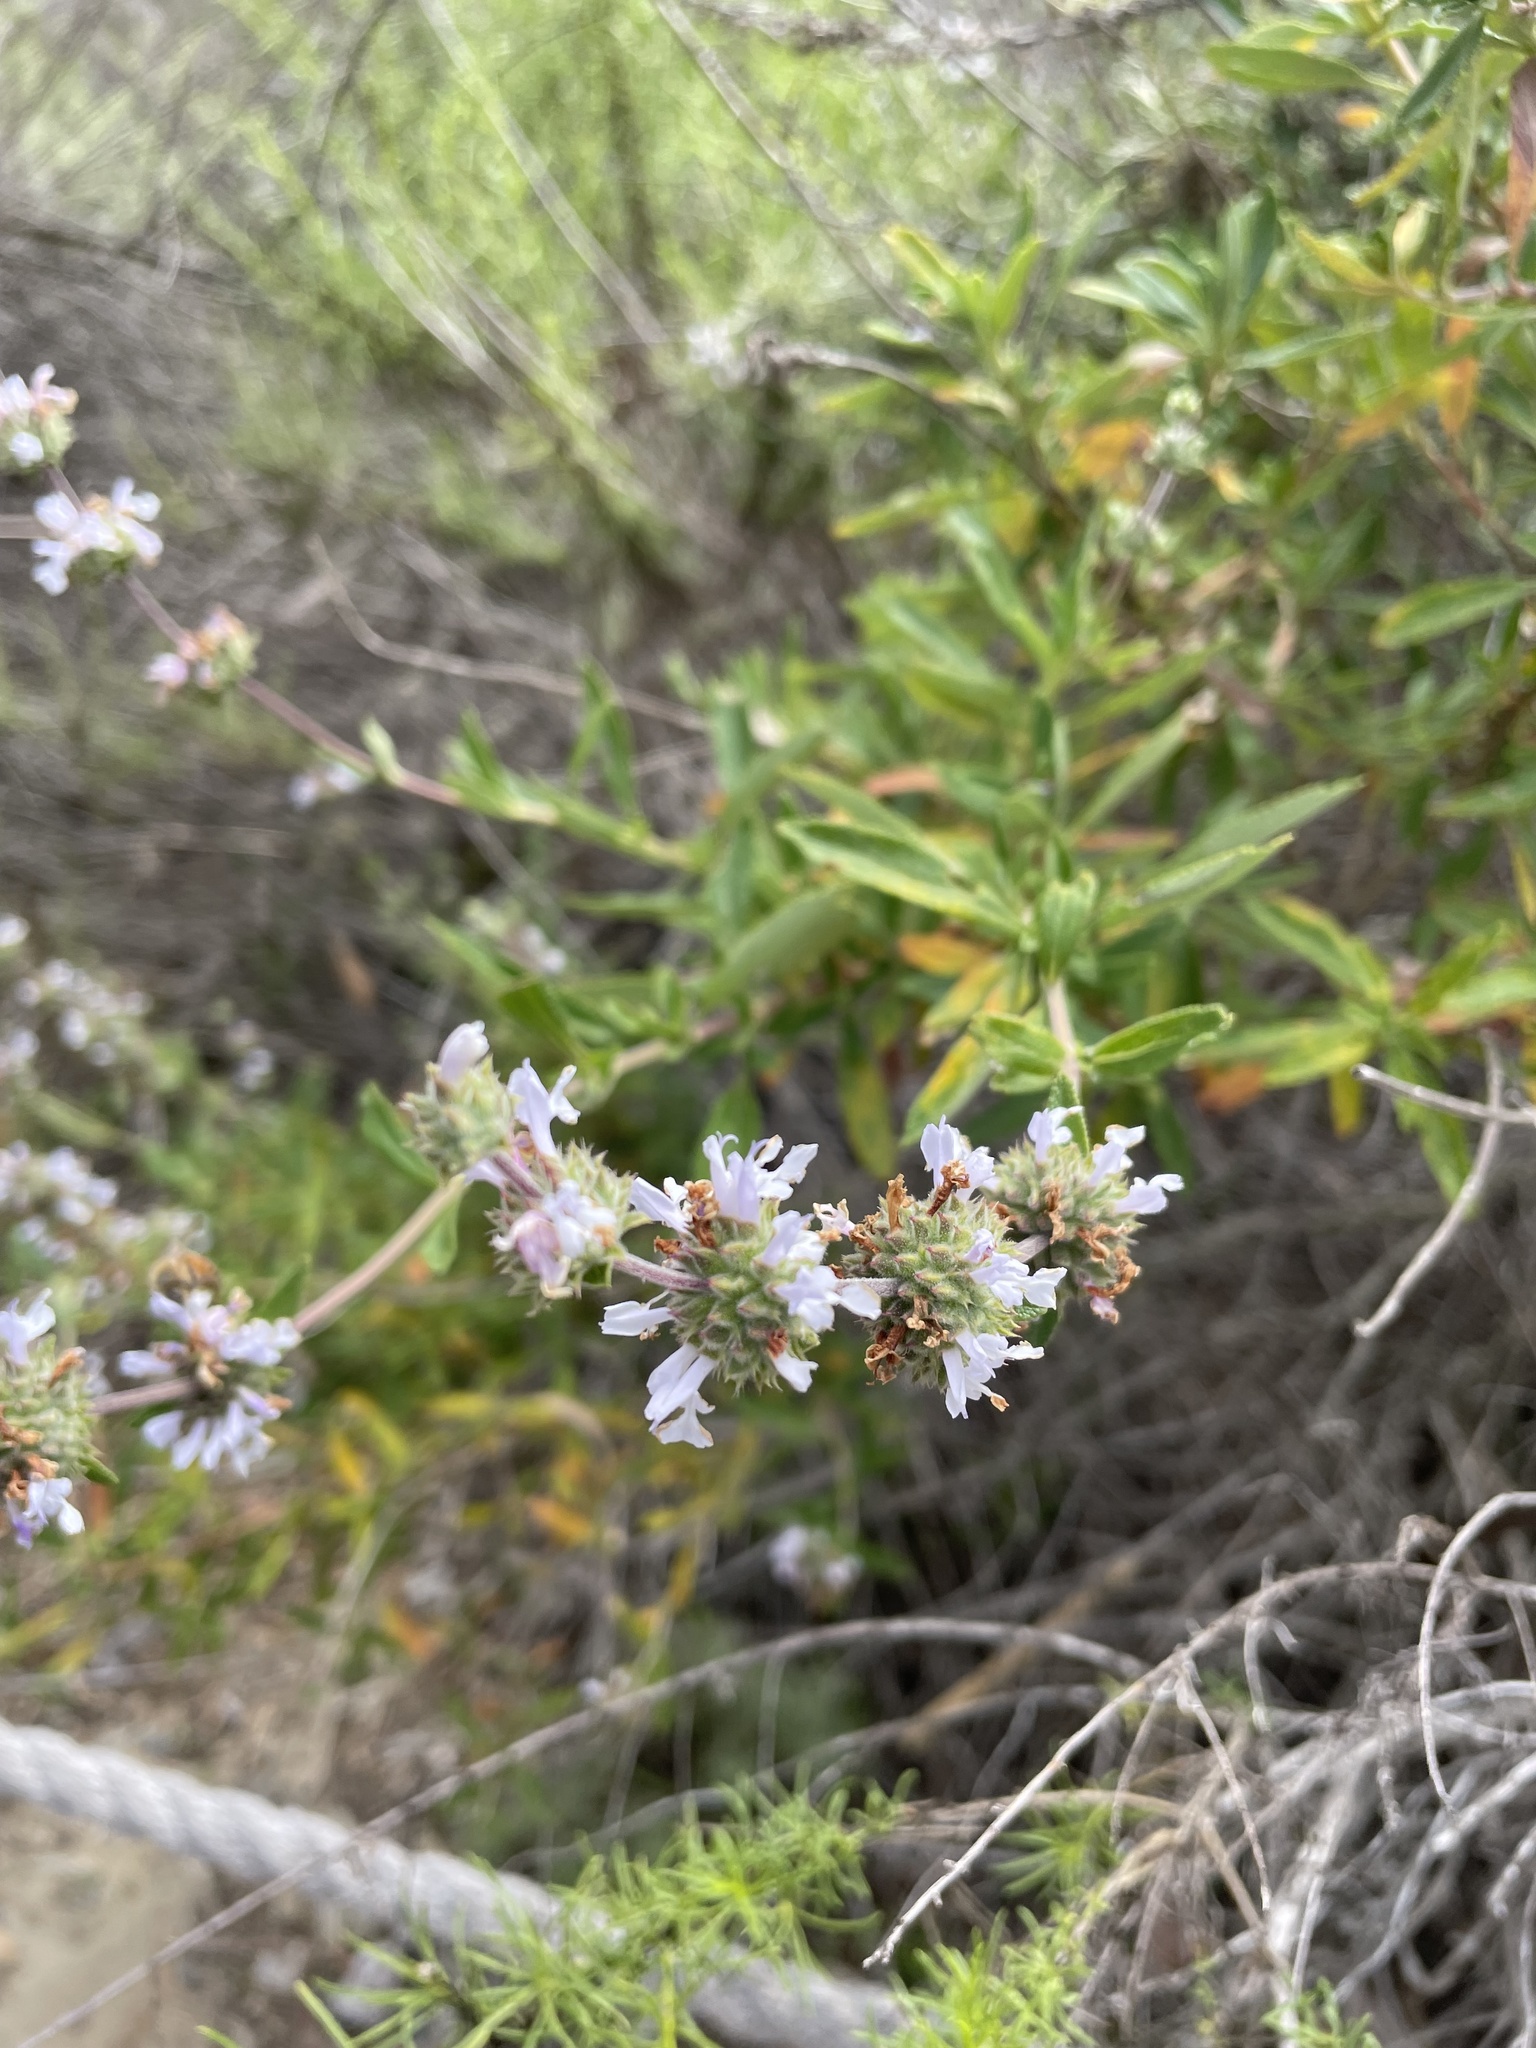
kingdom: Plantae
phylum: Tracheophyta
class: Magnoliopsida
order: Lamiales
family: Lamiaceae
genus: Salvia
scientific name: Salvia mellifera
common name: Black sage
